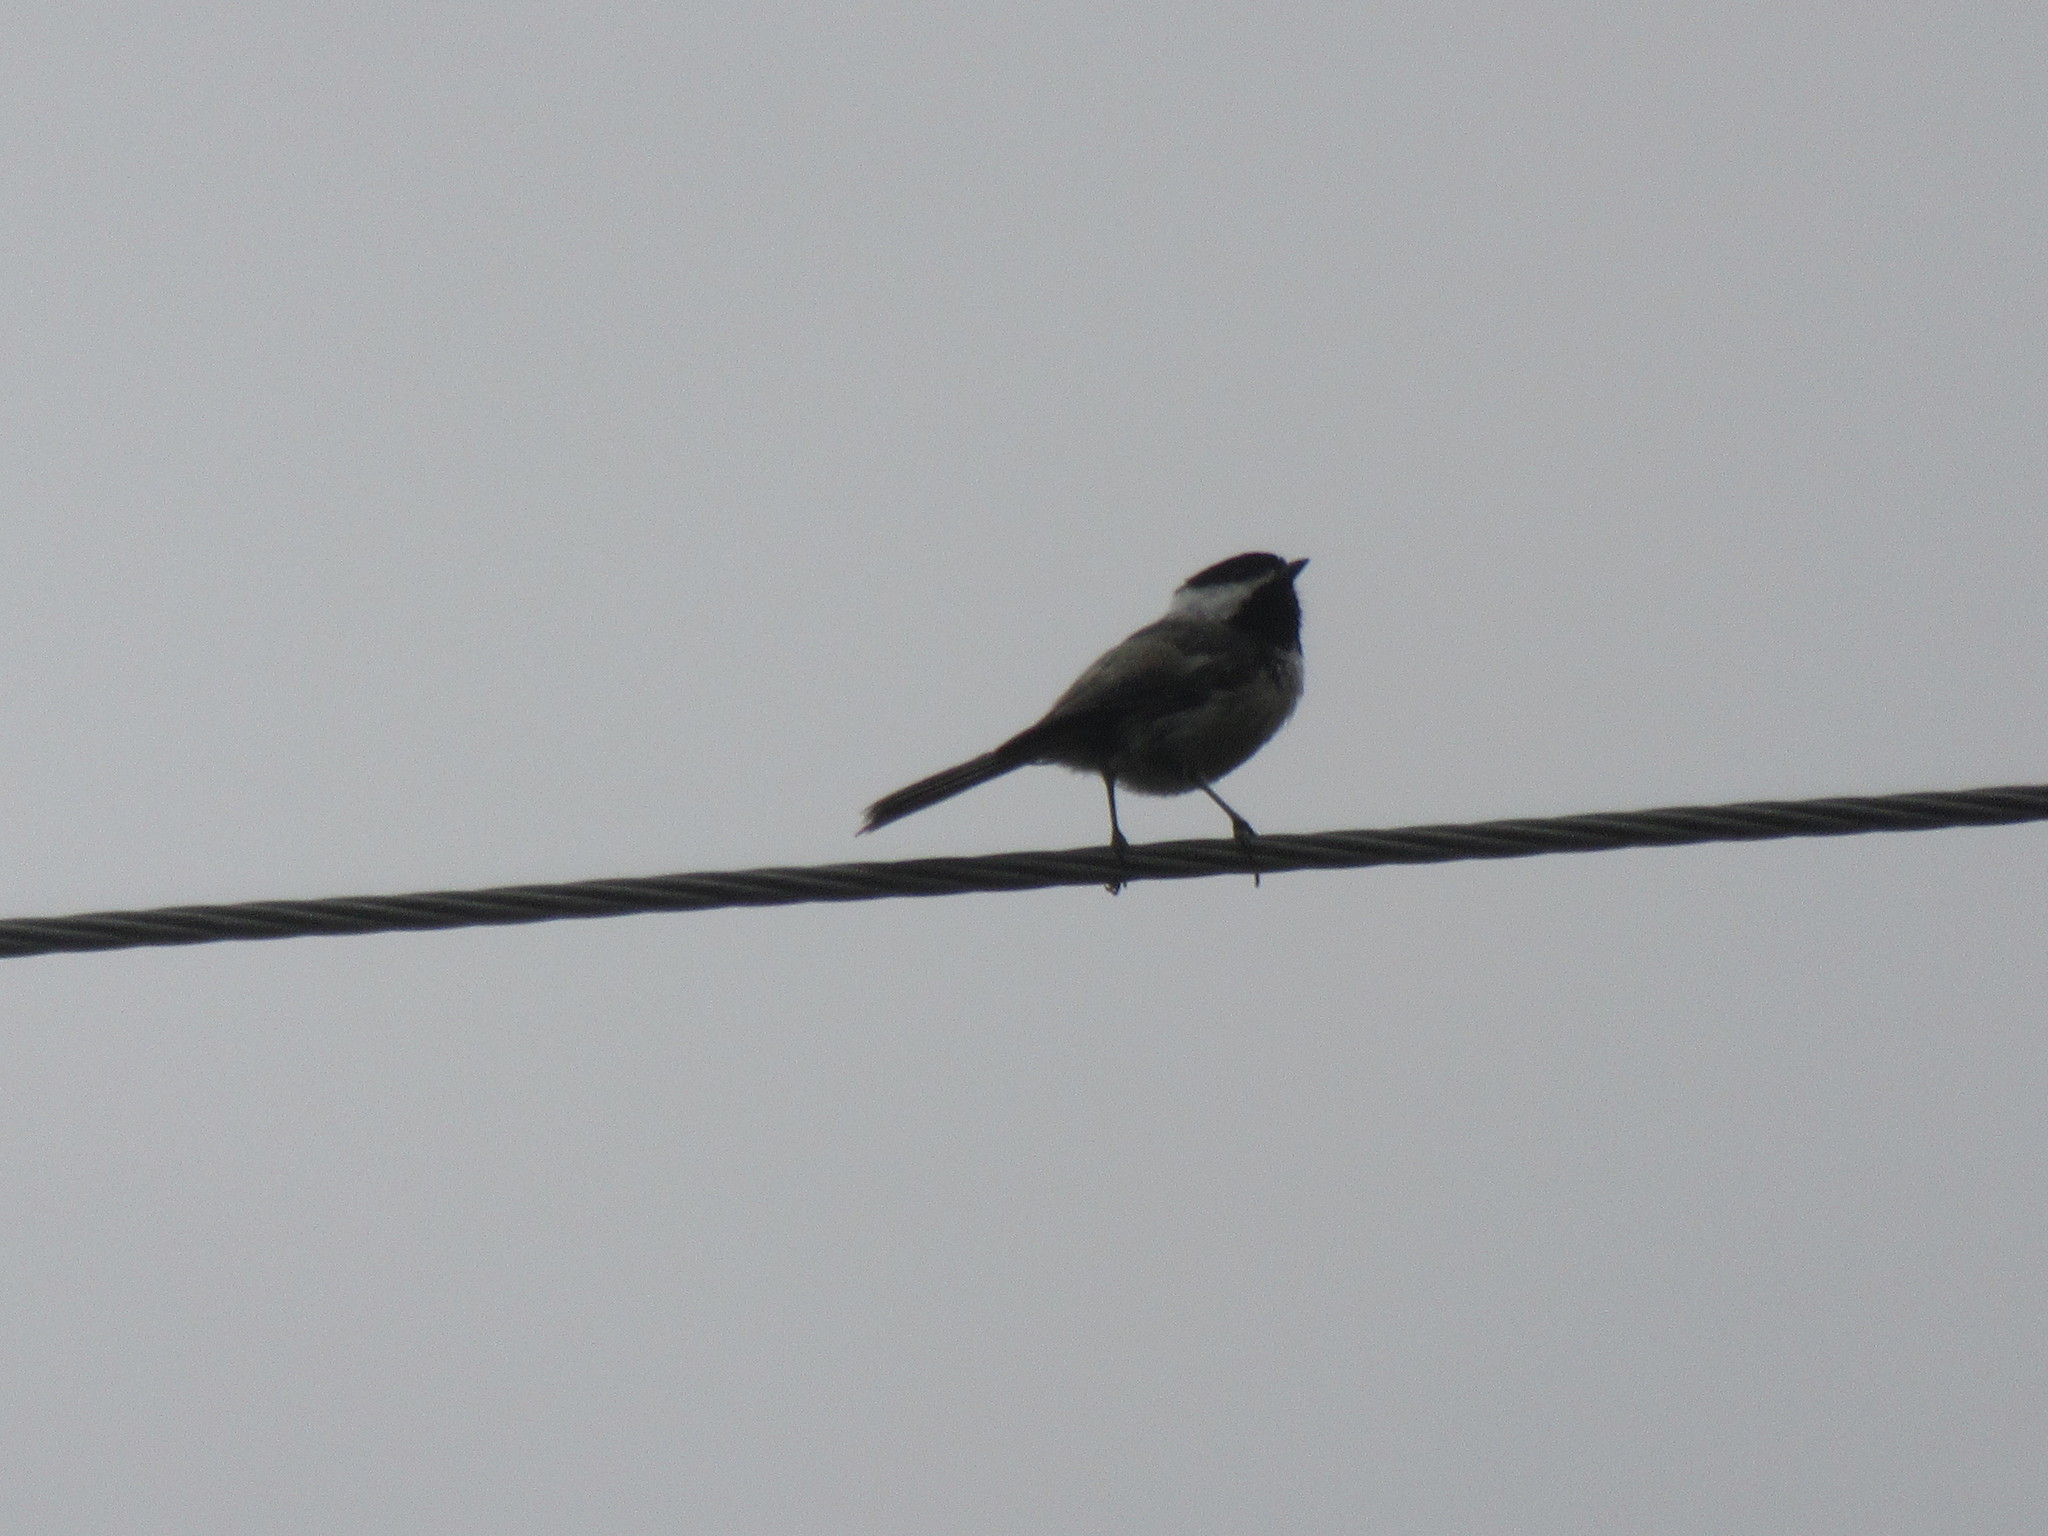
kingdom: Animalia
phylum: Chordata
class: Aves
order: Passeriformes
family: Paridae
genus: Poecile
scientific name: Poecile atricapillus
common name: Black-capped chickadee
